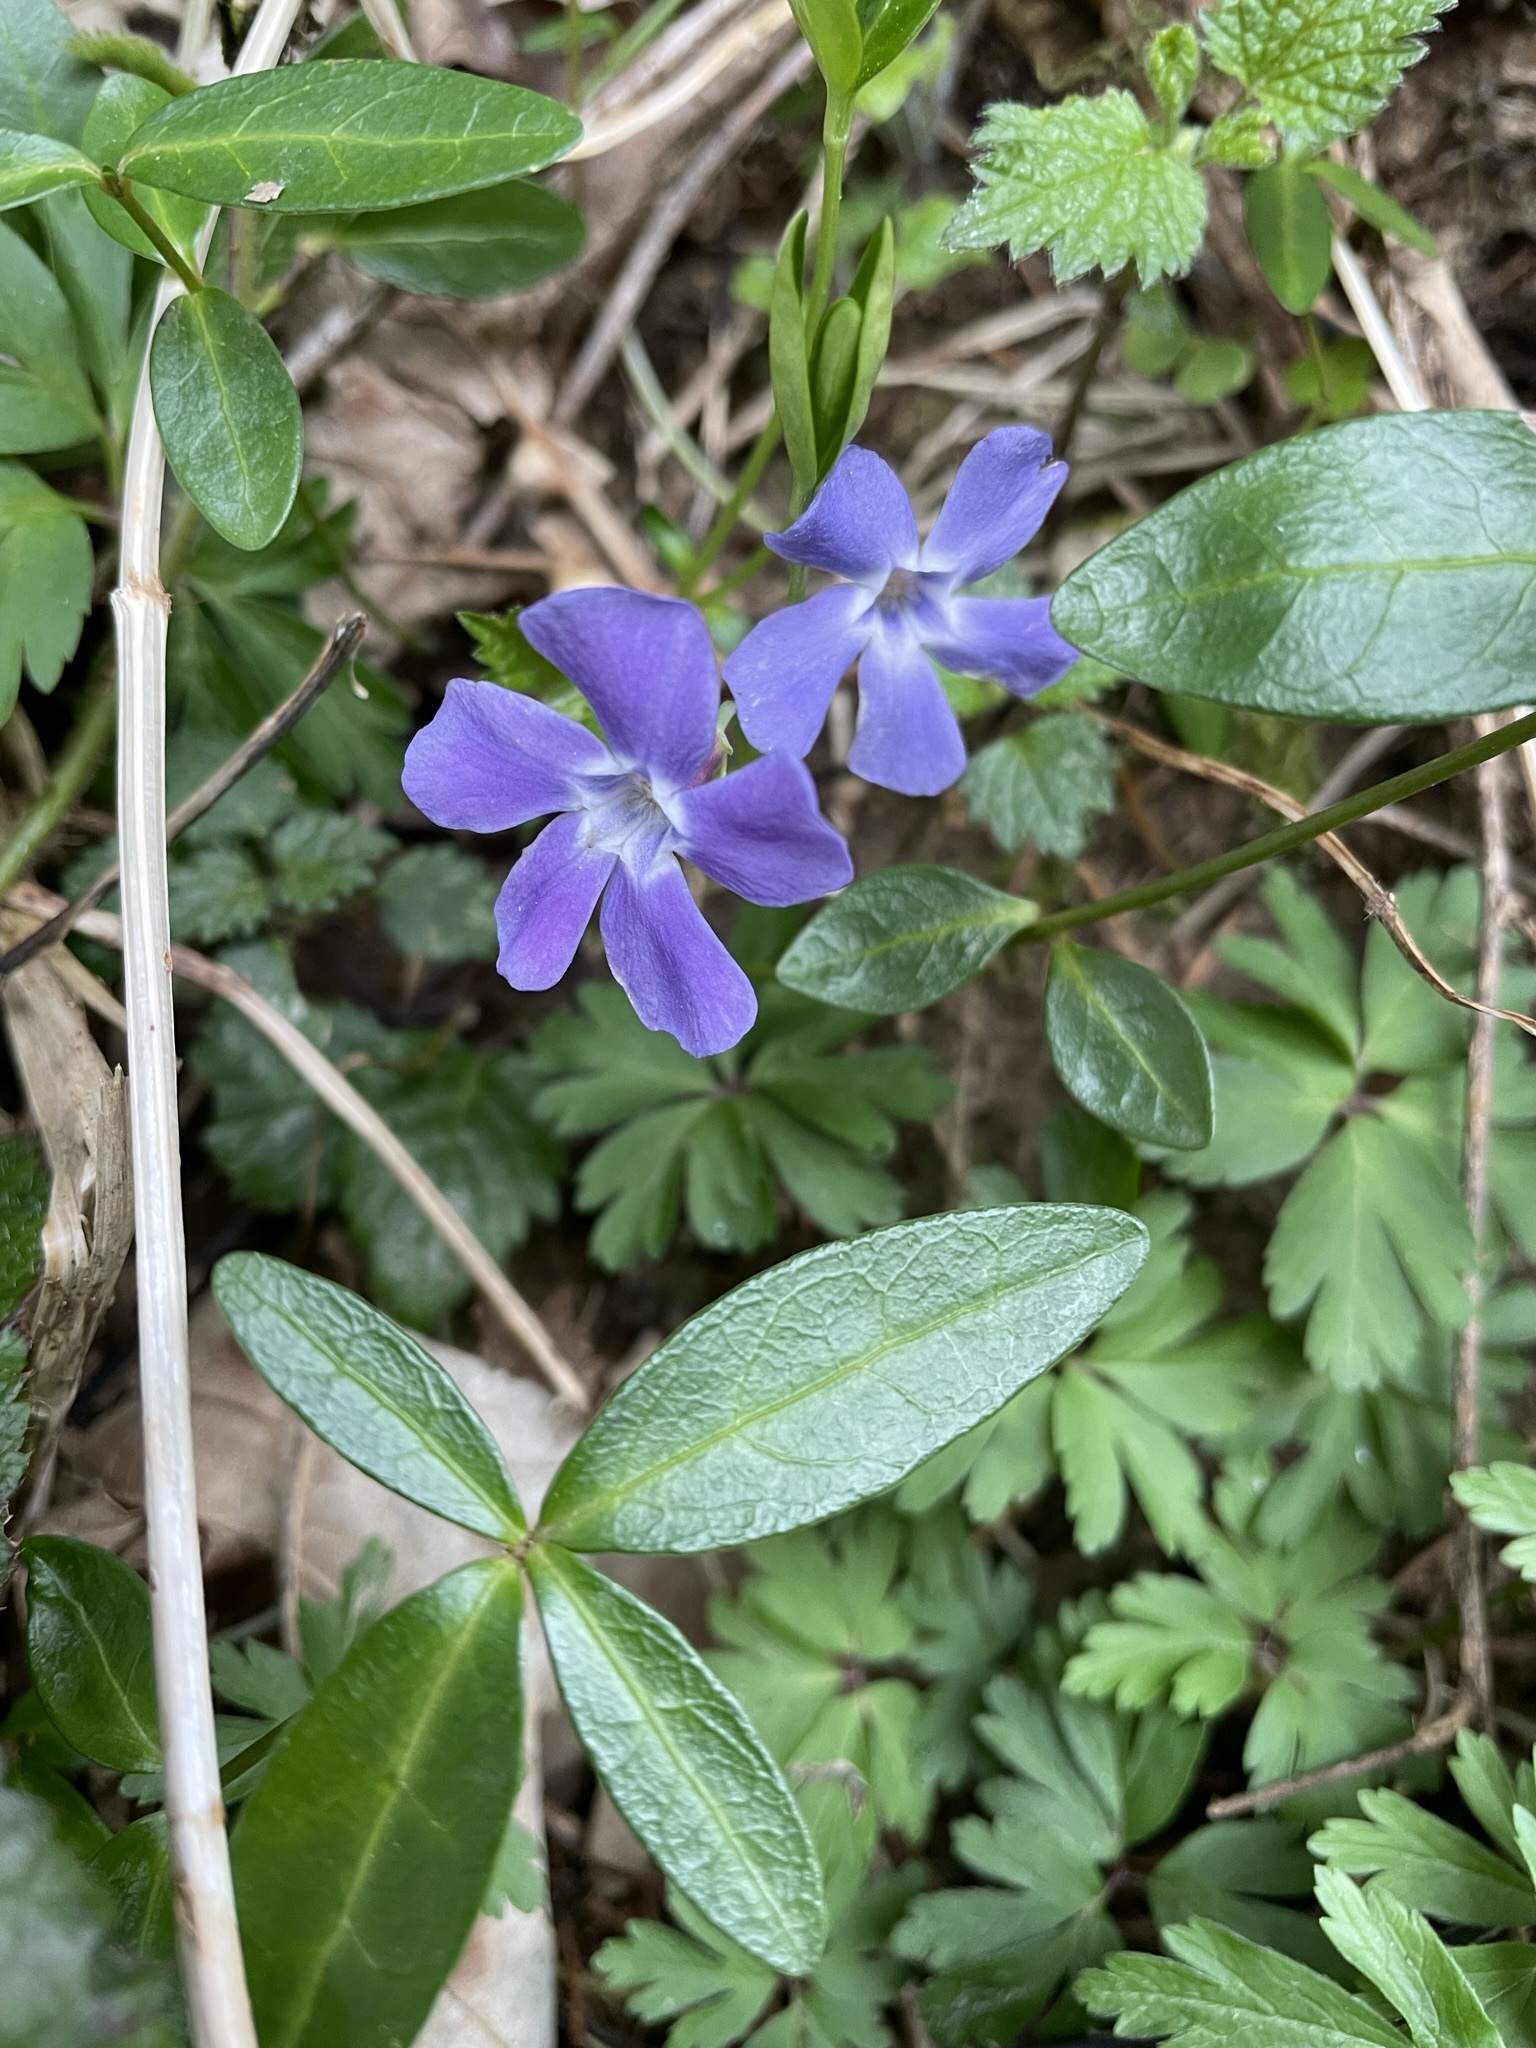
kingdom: Plantae
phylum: Tracheophyta
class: Magnoliopsida
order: Gentianales
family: Apocynaceae
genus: Vinca
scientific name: Vinca minor
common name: Lesser periwinkle
